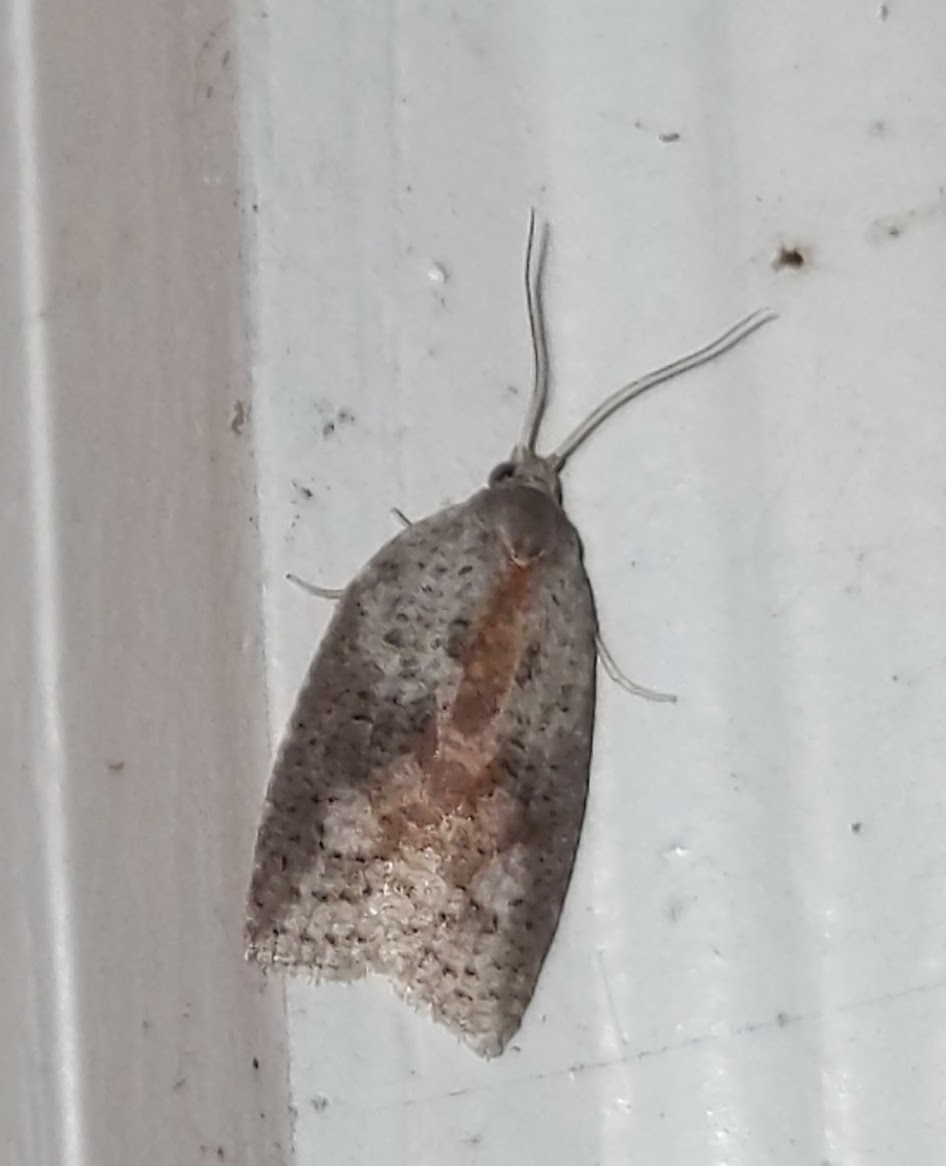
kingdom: Animalia
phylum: Arthropoda
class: Insecta
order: Lepidoptera
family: Tortricidae
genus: Amorbia
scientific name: Amorbia humerosana
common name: White-lined leafroller moth
